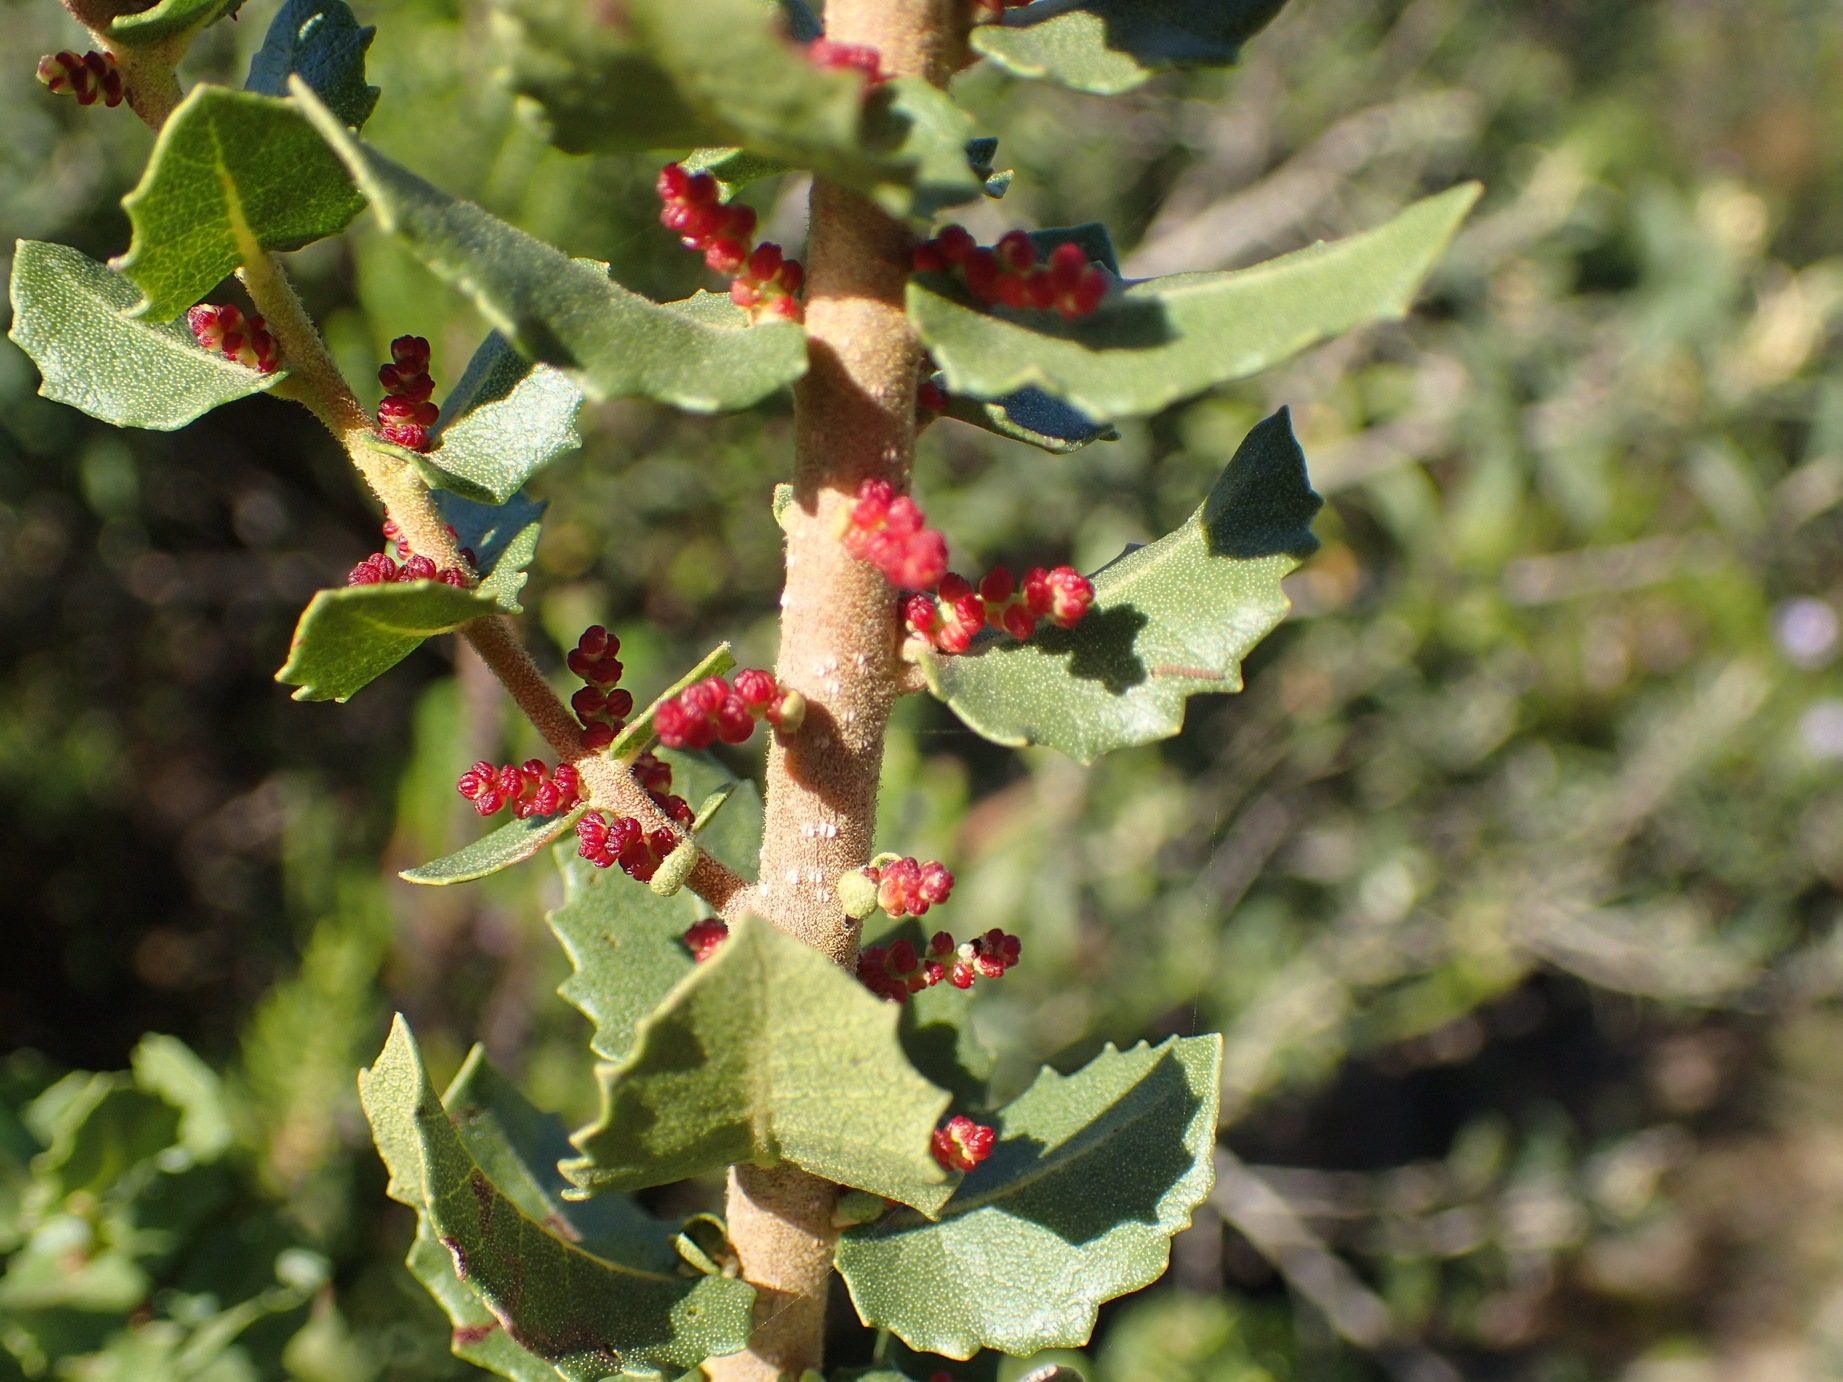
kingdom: Plantae
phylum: Tracheophyta
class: Magnoliopsida
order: Fagales
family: Myricaceae
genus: Morella
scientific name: Morella cordifolia
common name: Waxberry
